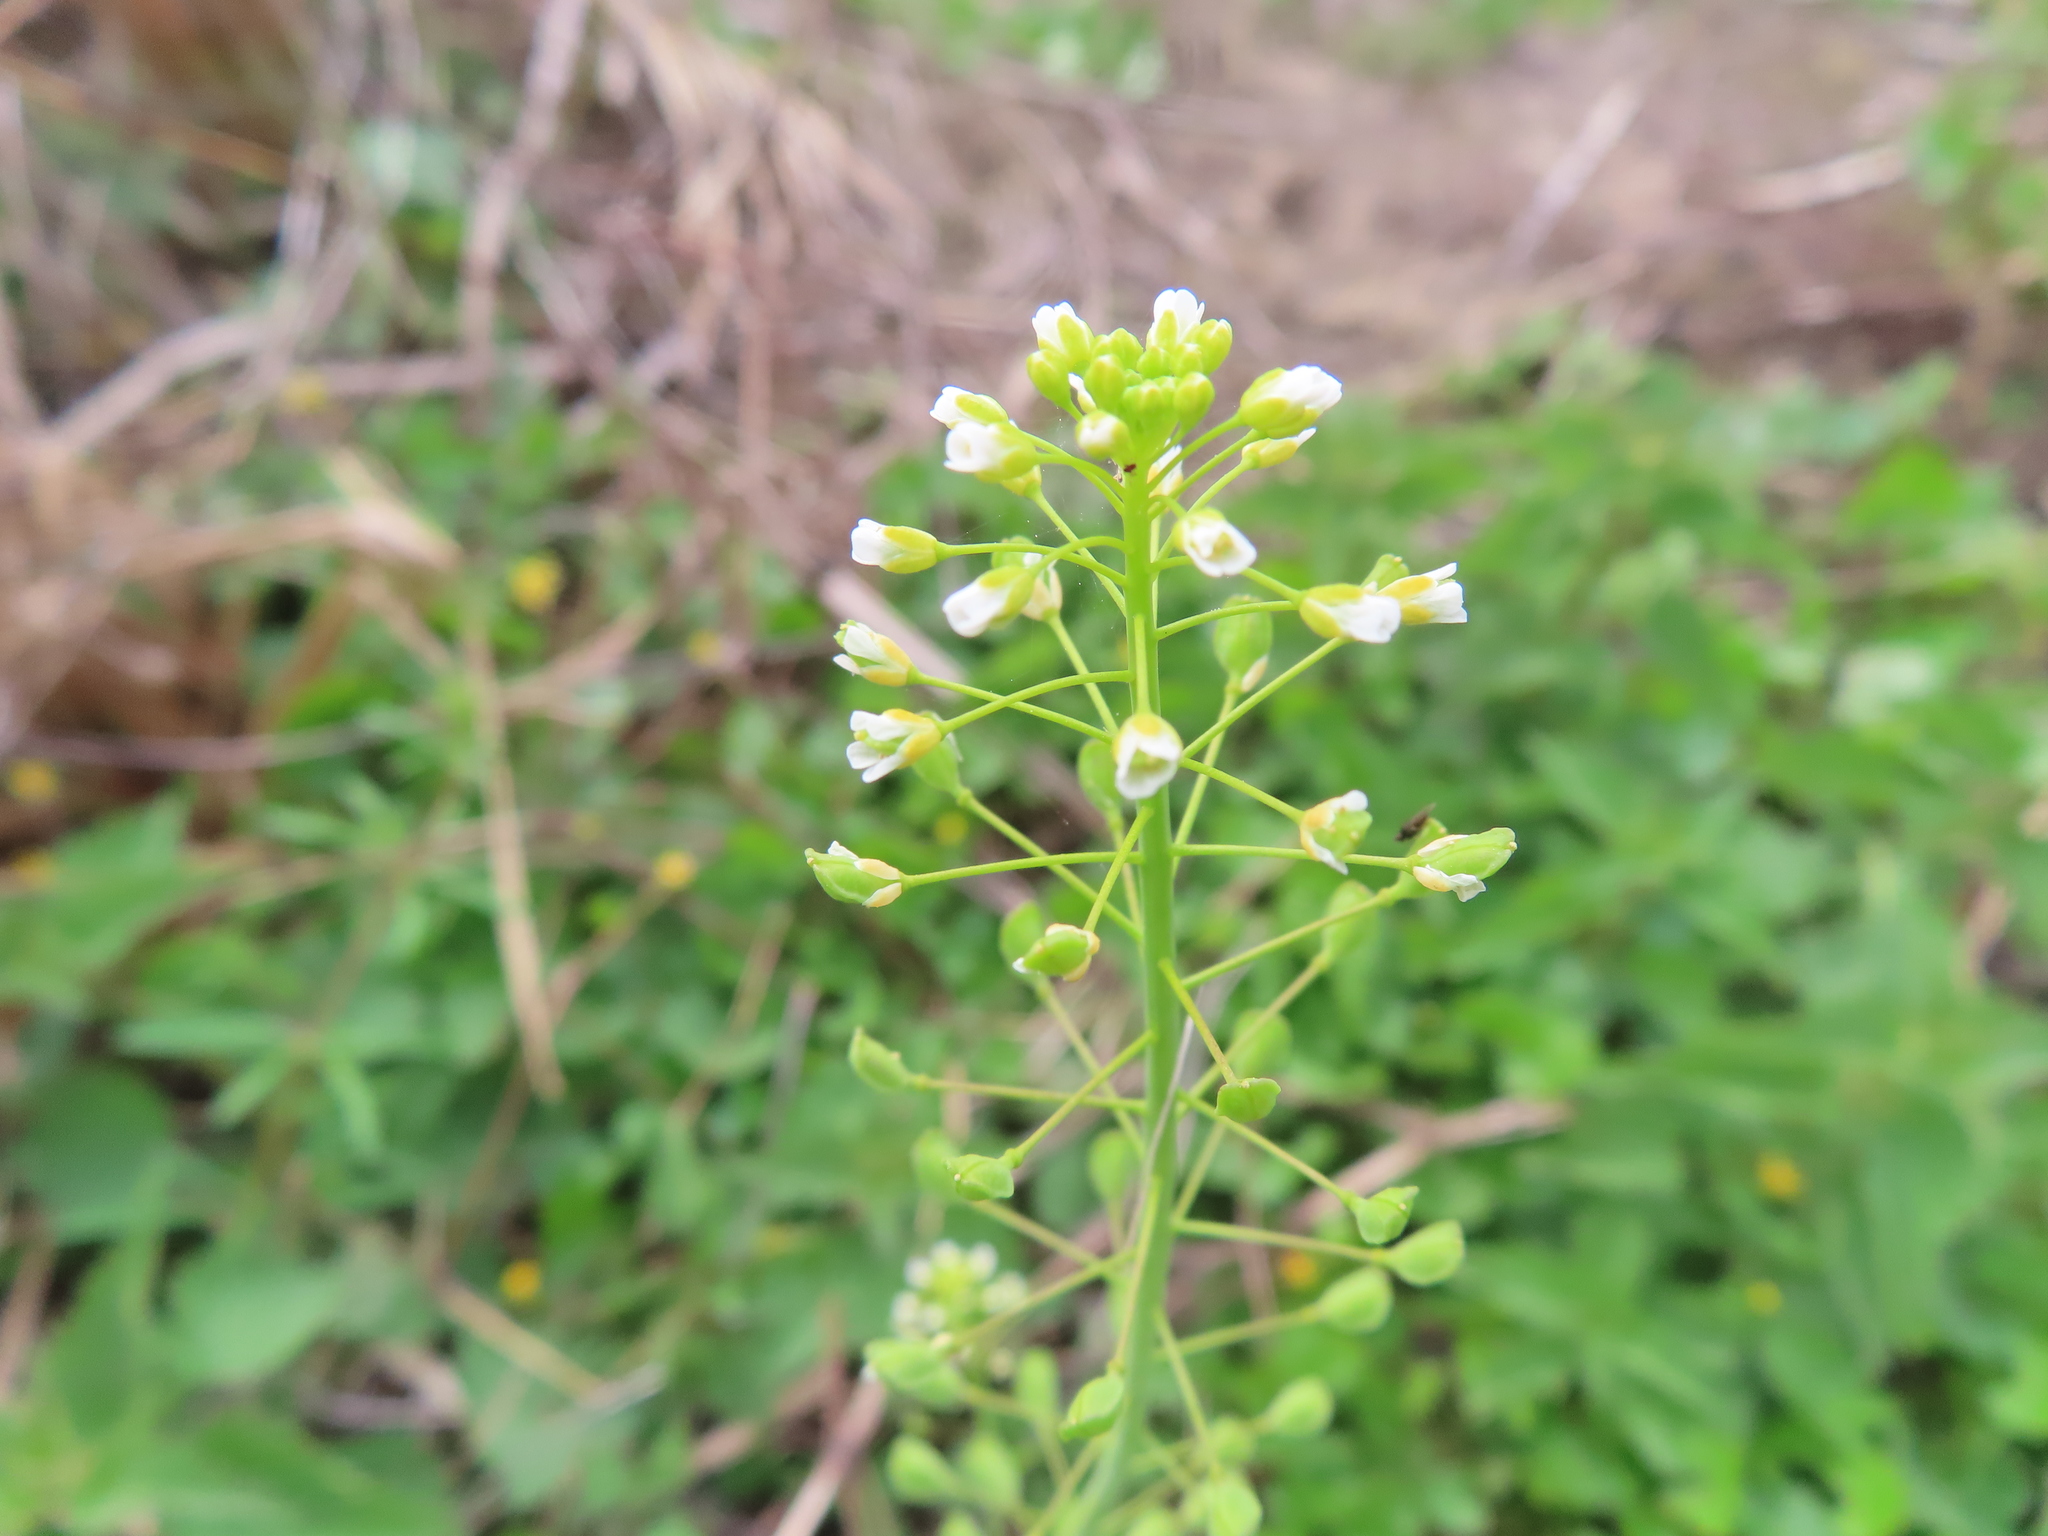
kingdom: Plantae
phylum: Tracheophyta
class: Magnoliopsida
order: Brassicales
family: Brassicaceae
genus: Mummenhoffia
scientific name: Mummenhoffia alliacea
